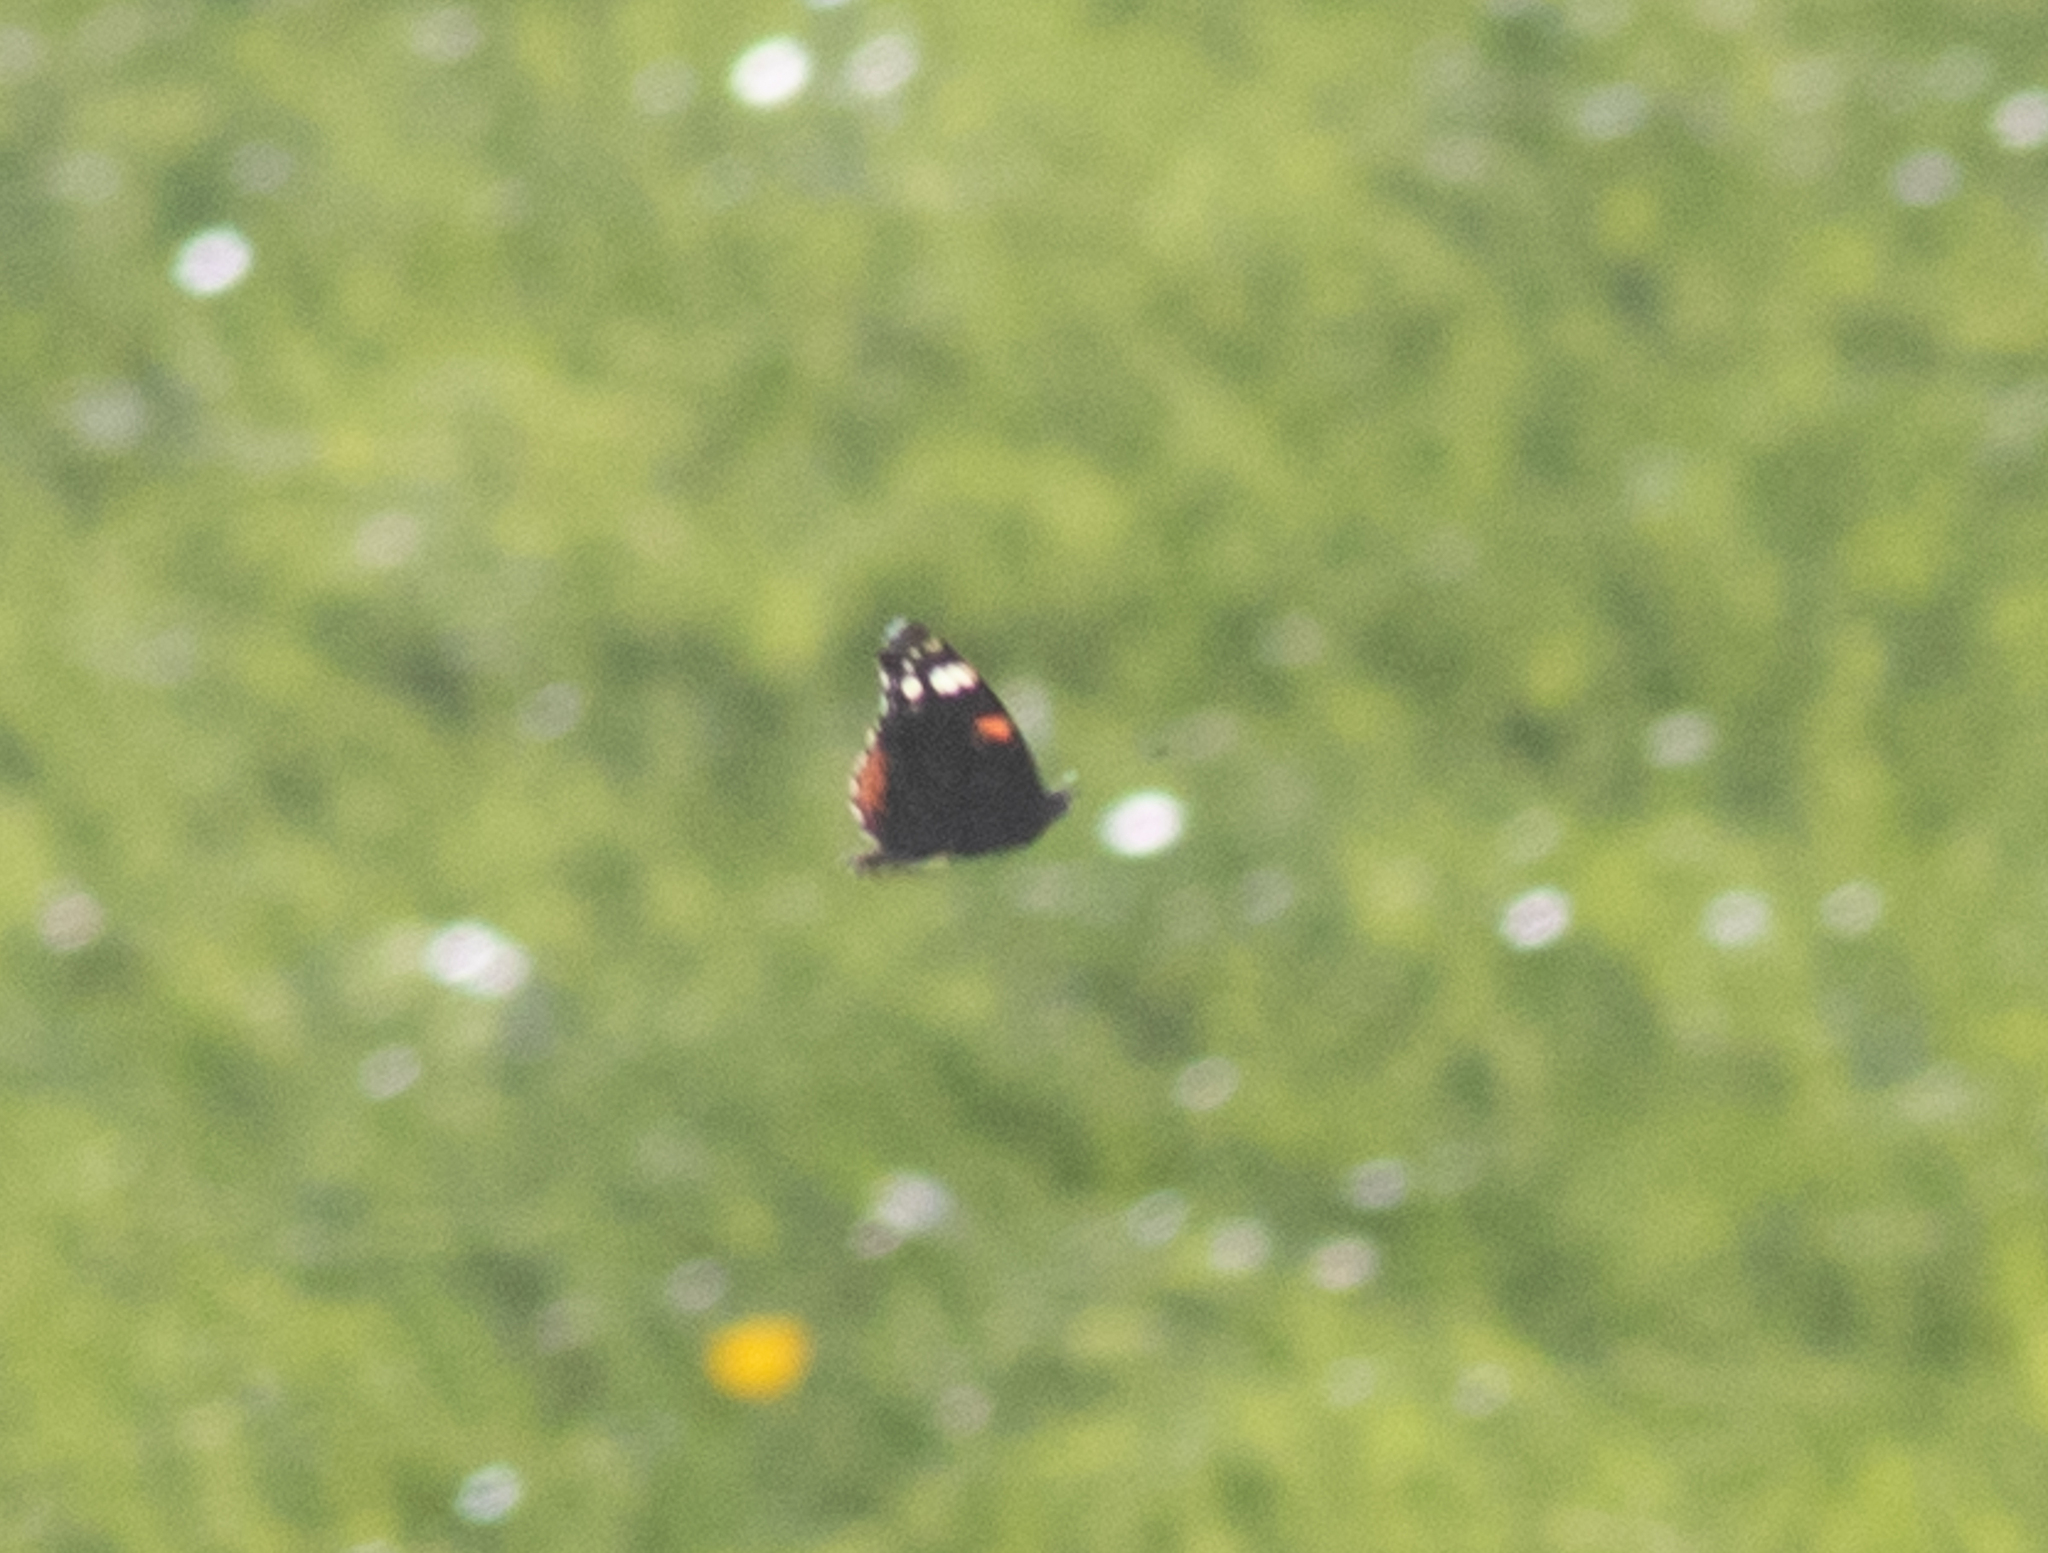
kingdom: Animalia
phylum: Arthropoda
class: Insecta
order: Lepidoptera
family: Nymphalidae
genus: Vanessa
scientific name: Vanessa atalanta
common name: Red admiral
